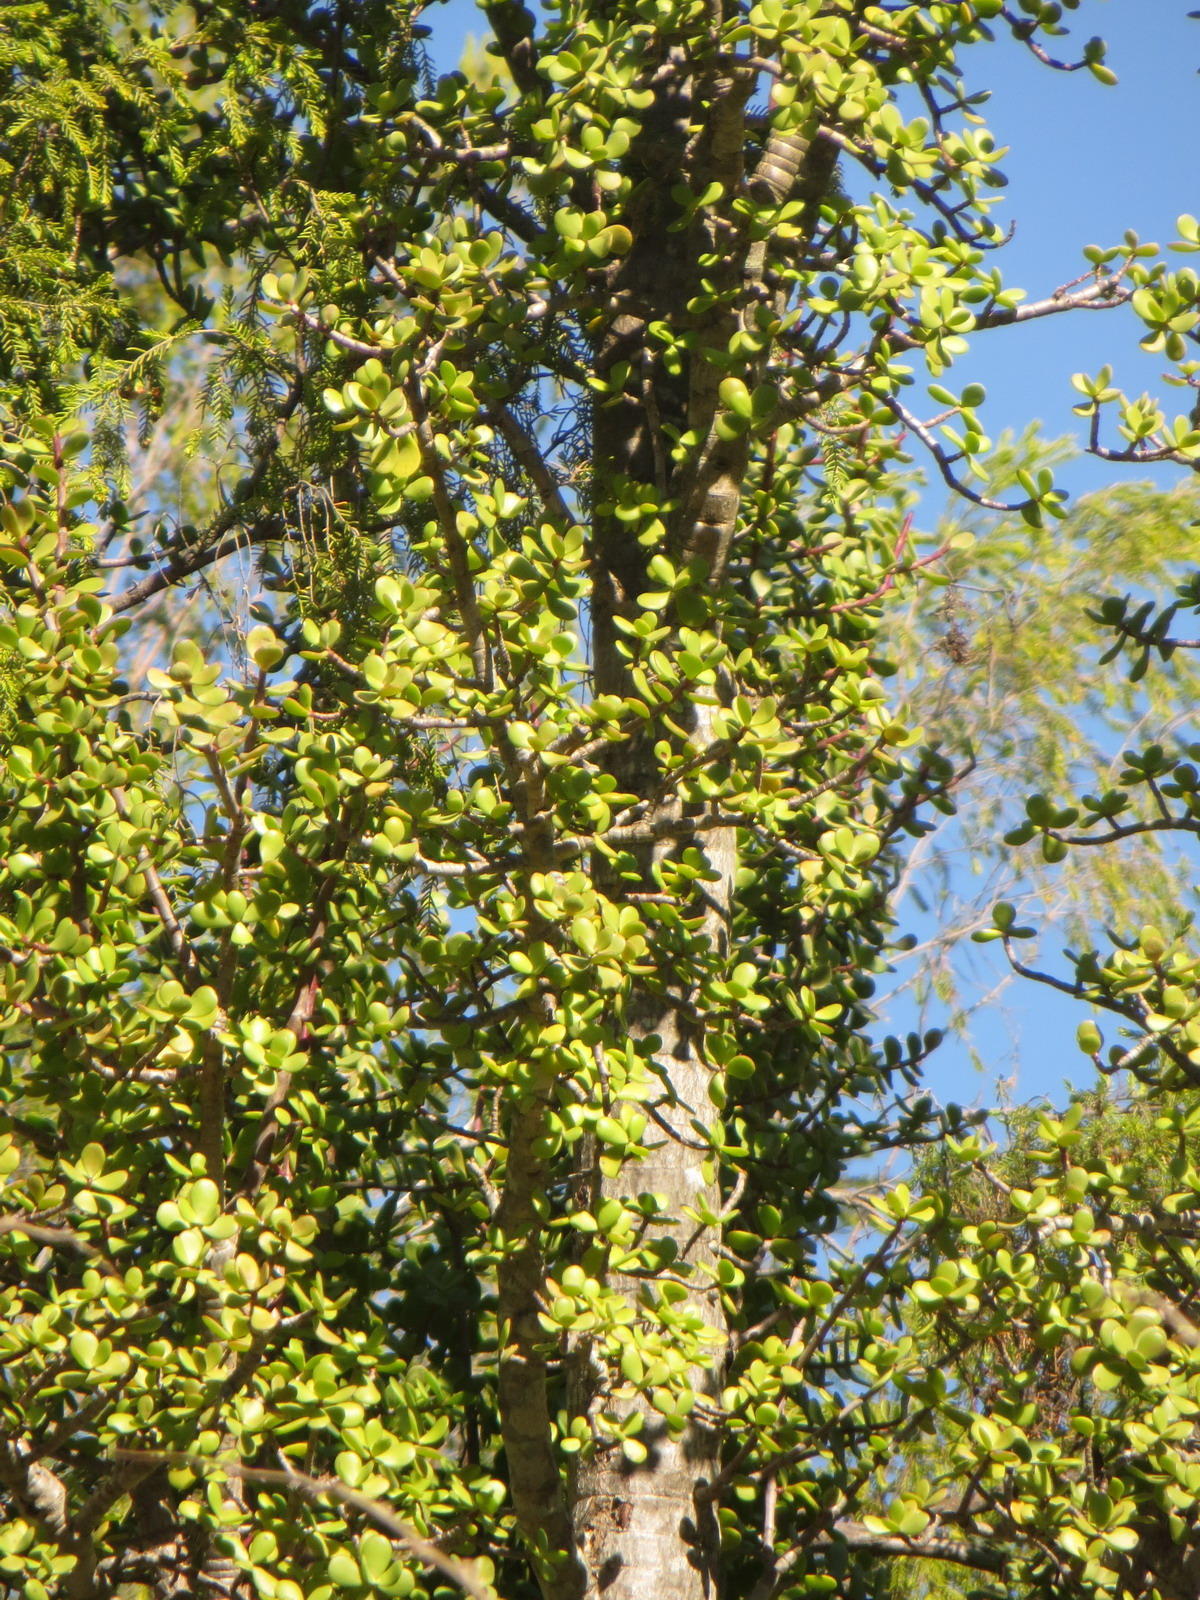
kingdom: Plantae
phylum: Tracheophyta
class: Magnoliopsida
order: Caryophyllales
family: Didiereaceae
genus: Portulacaria
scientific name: Portulacaria afra
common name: Elephant-bush
